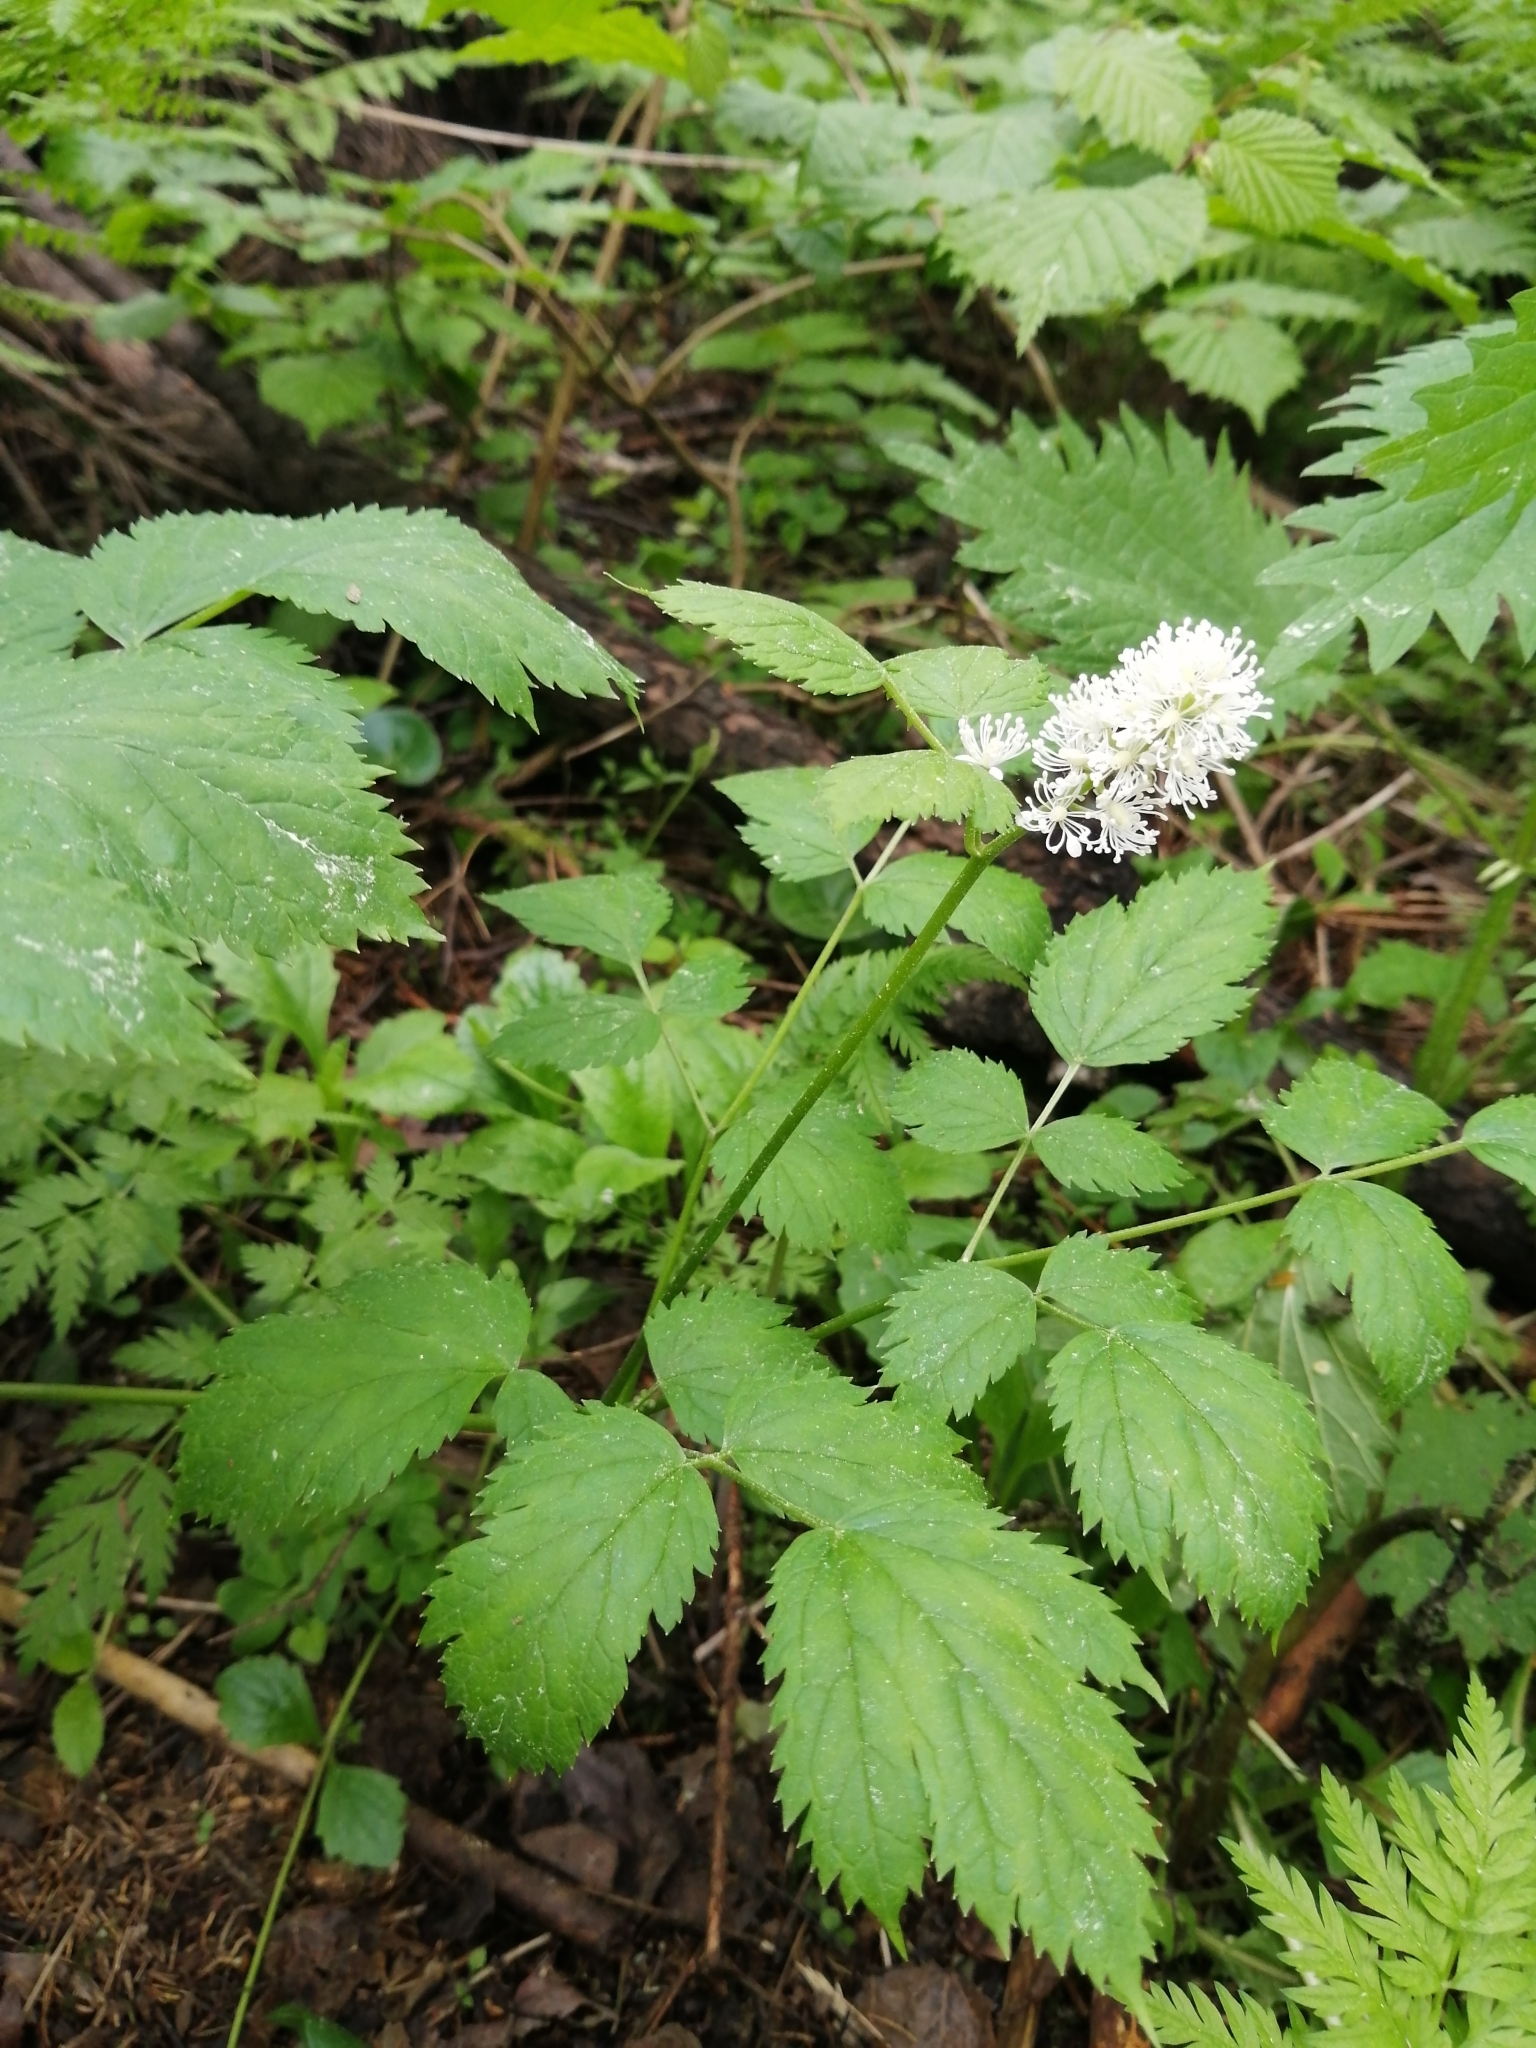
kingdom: Plantae
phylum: Tracheophyta
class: Magnoliopsida
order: Ranunculales
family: Ranunculaceae
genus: Actaea
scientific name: Actaea spicata
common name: Baneberry
